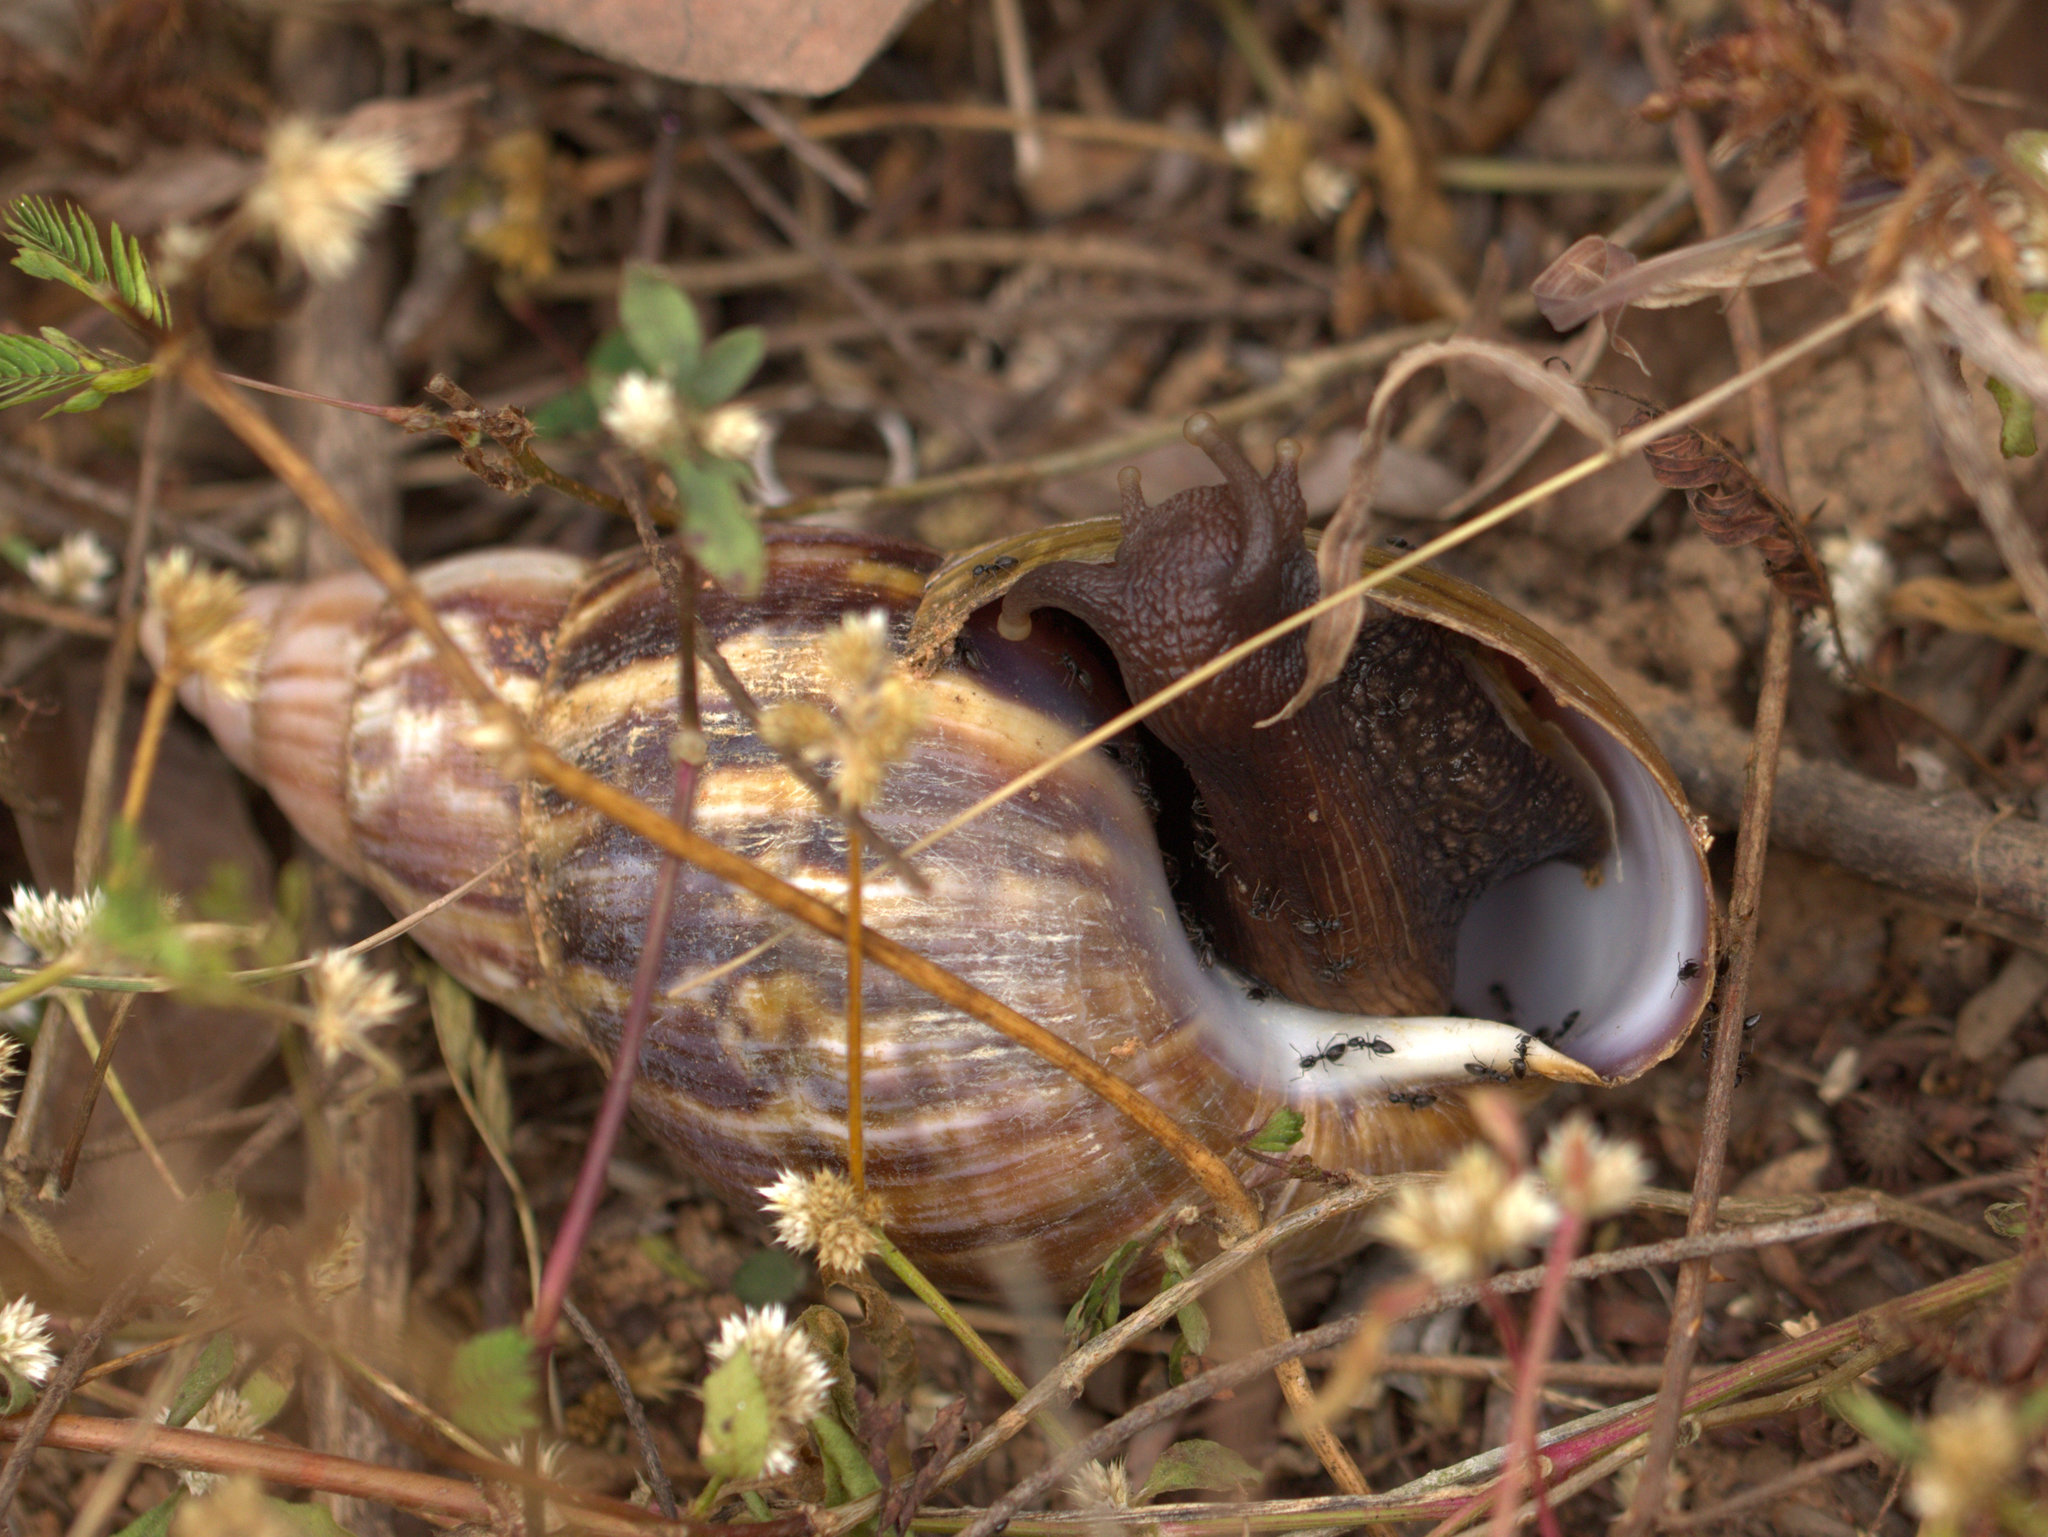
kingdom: Animalia
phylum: Mollusca
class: Gastropoda
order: Stylommatophora
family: Achatinidae
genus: Lissachatina
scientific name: Lissachatina fulica
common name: Giant african snail
